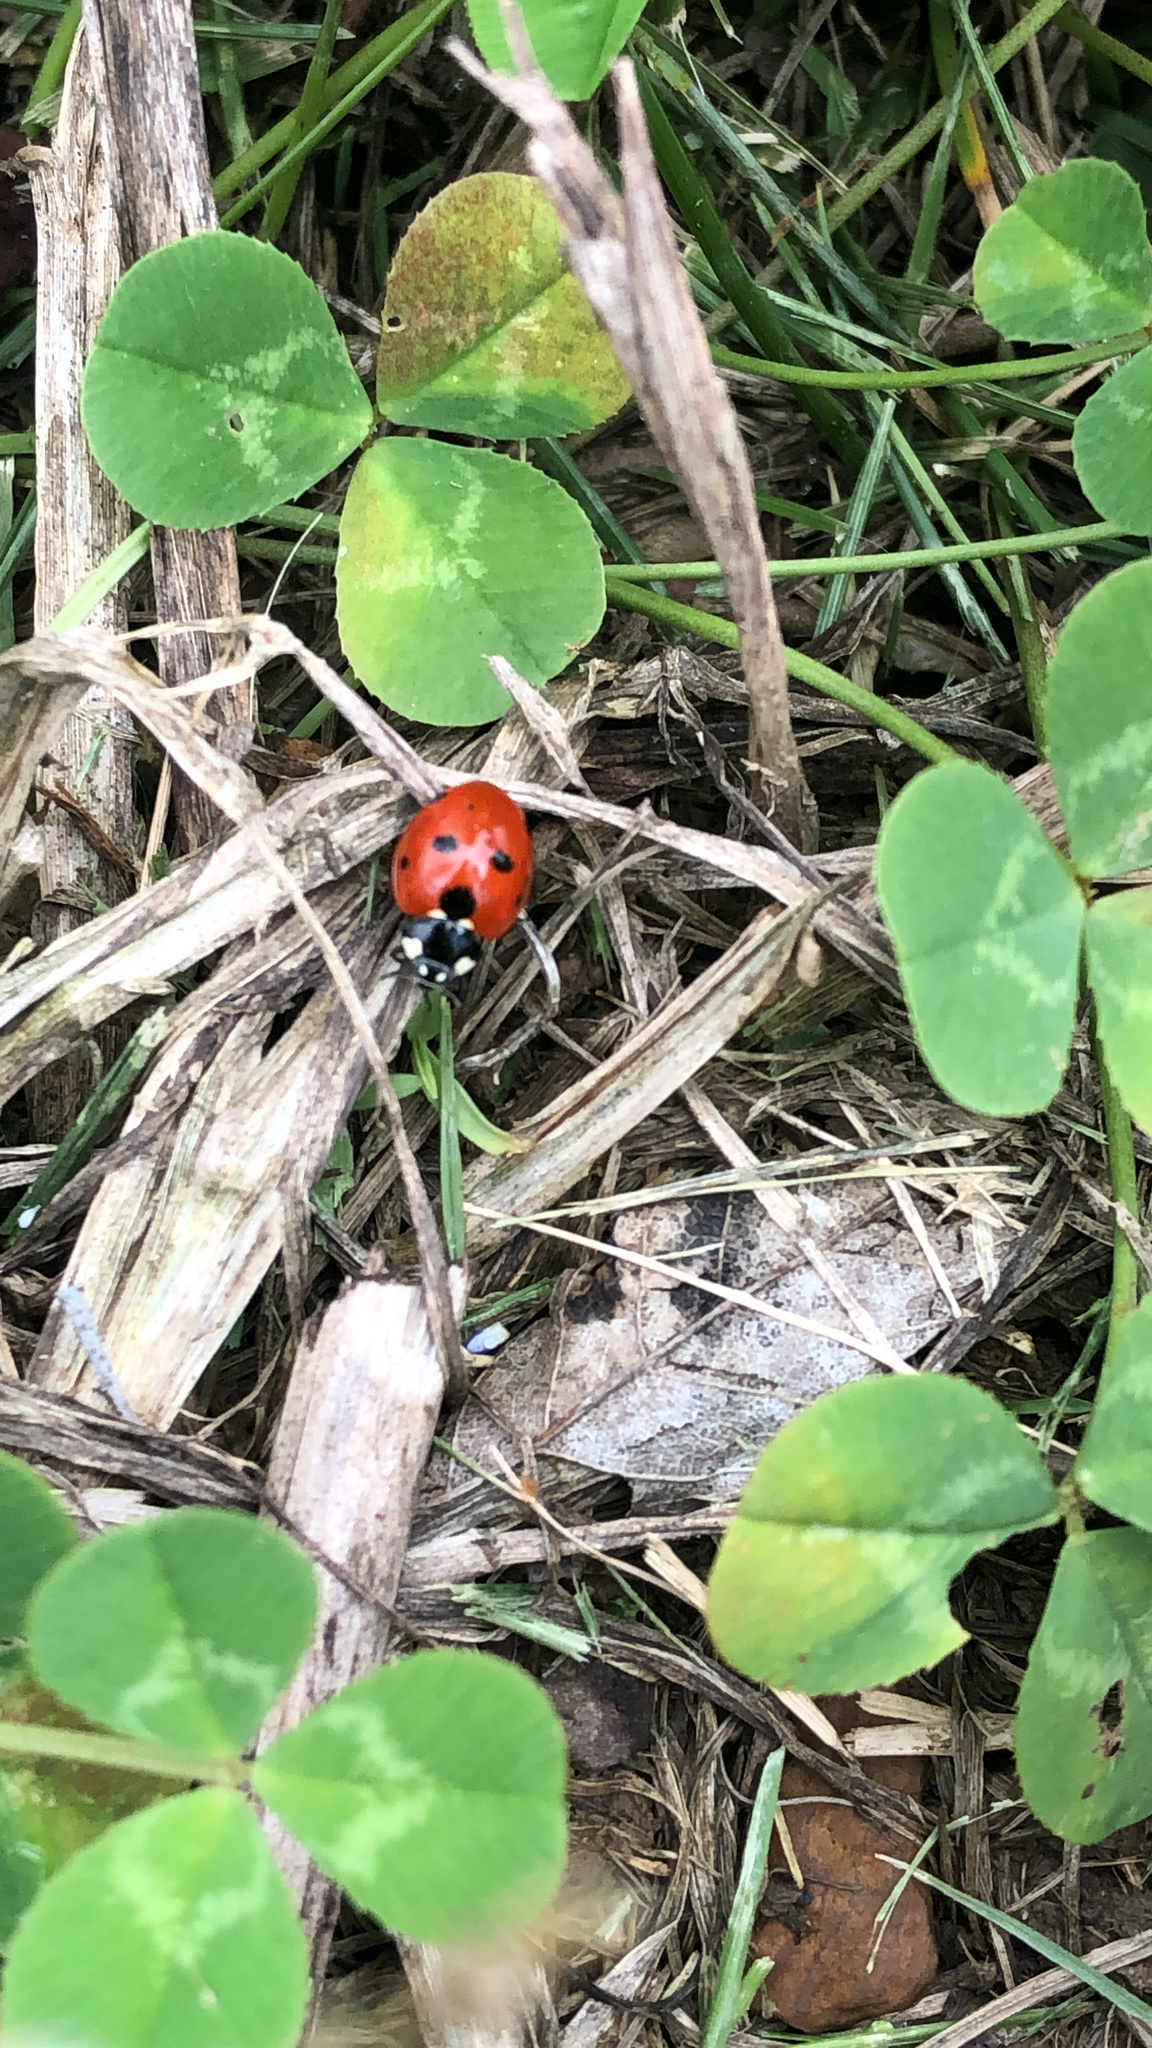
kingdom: Animalia
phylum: Arthropoda
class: Insecta
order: Coleoptera
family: Coccinellidae
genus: Coccinella
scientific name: Coccinella septempunctata
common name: Sevenspotted lady beetle
